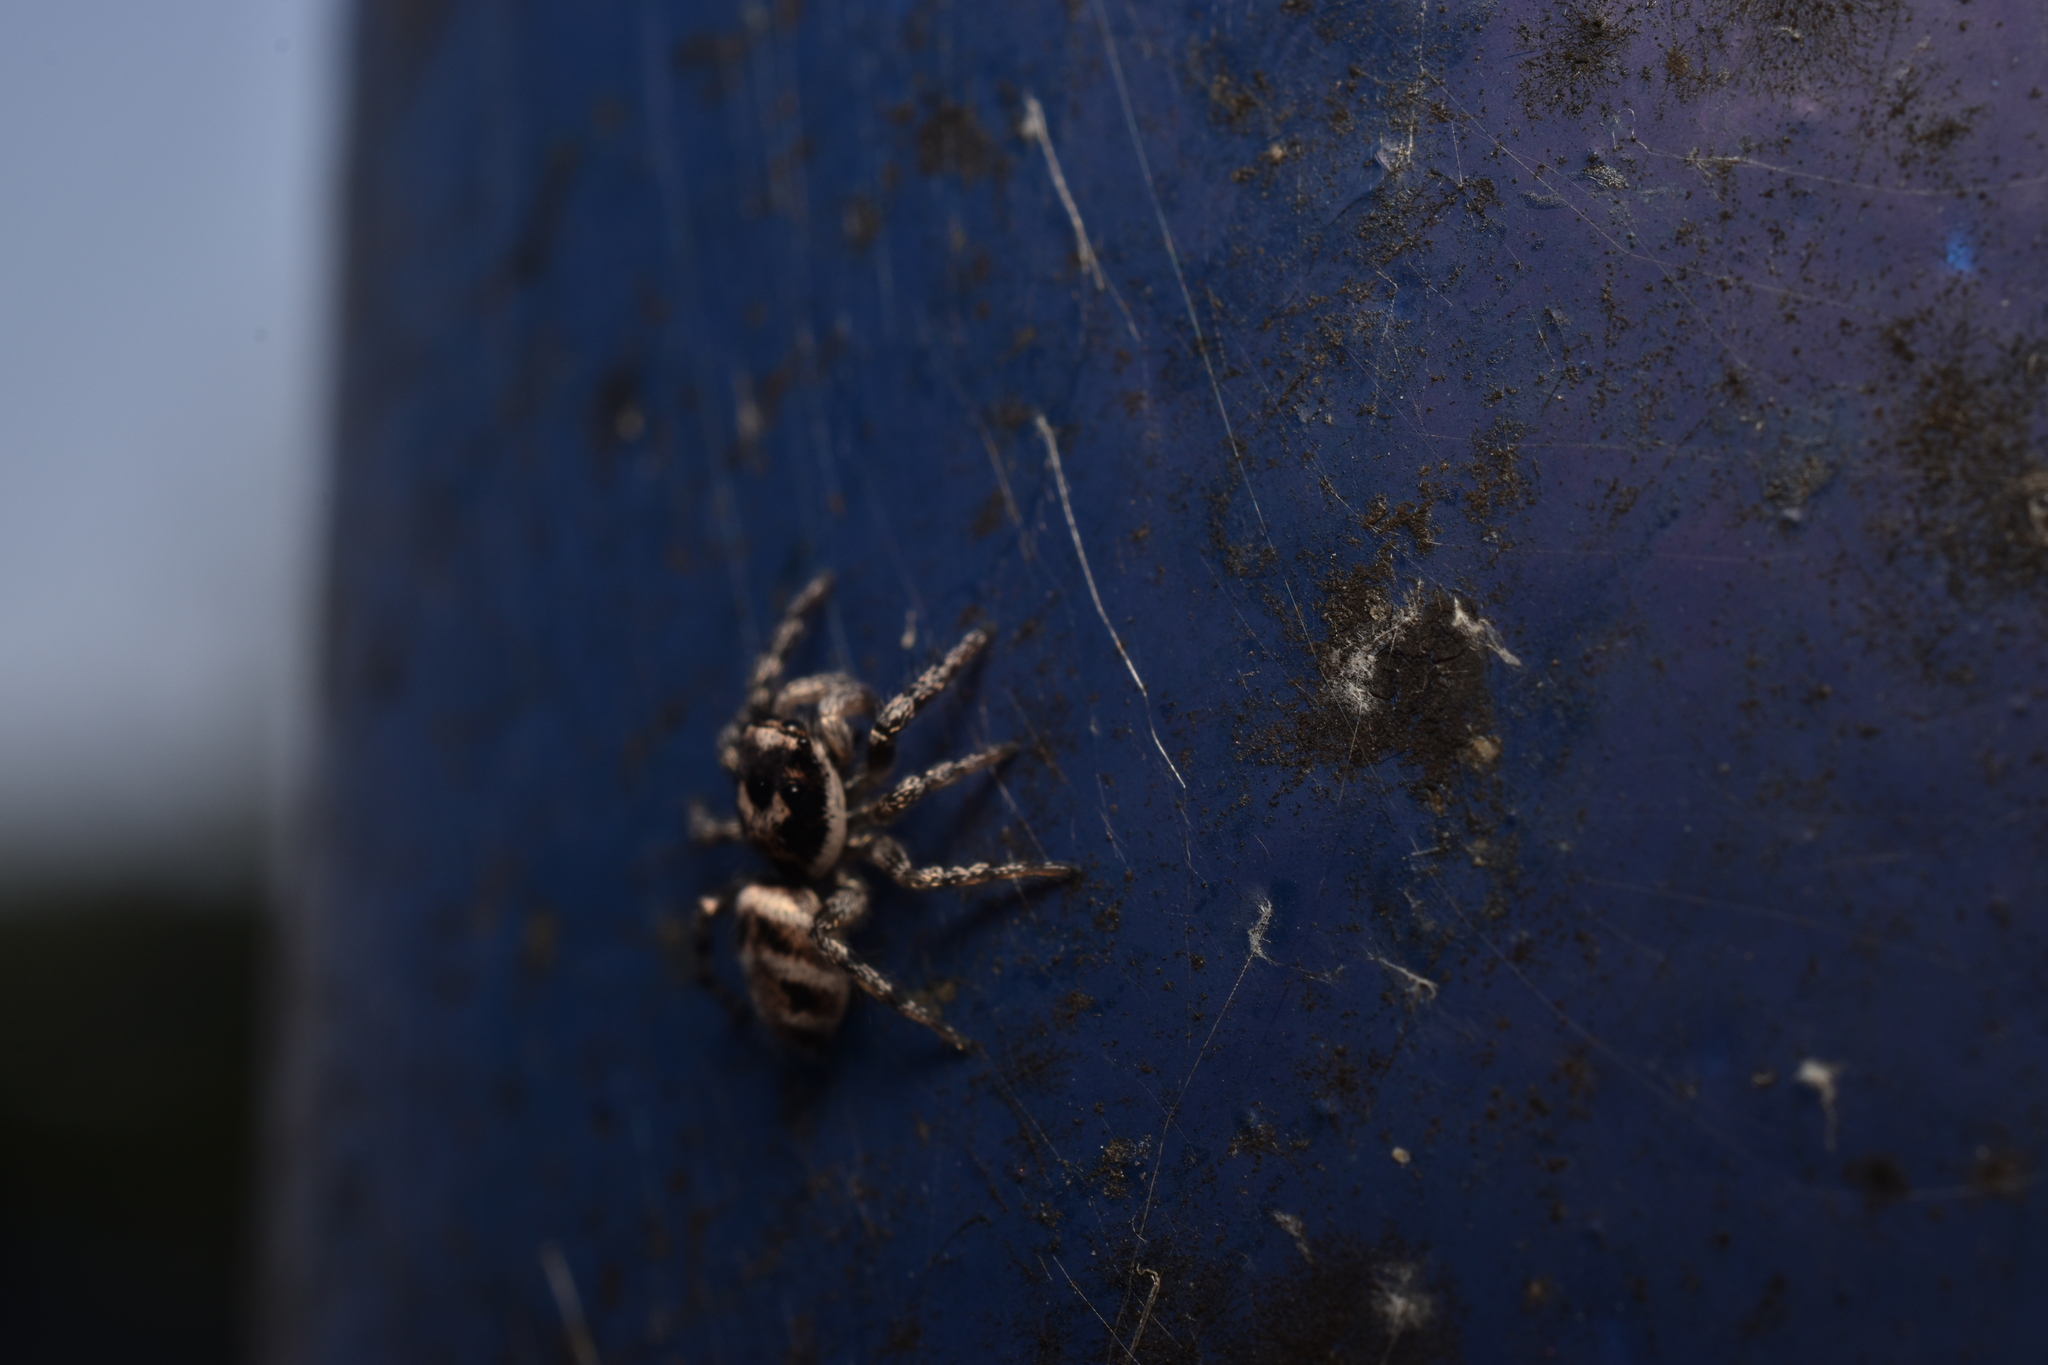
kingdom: Animalia
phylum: Arthropoda
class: Arachnida
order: Araneae
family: Salticidae
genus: Salticus
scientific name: Salticus scenicus
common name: Zebra jumper
